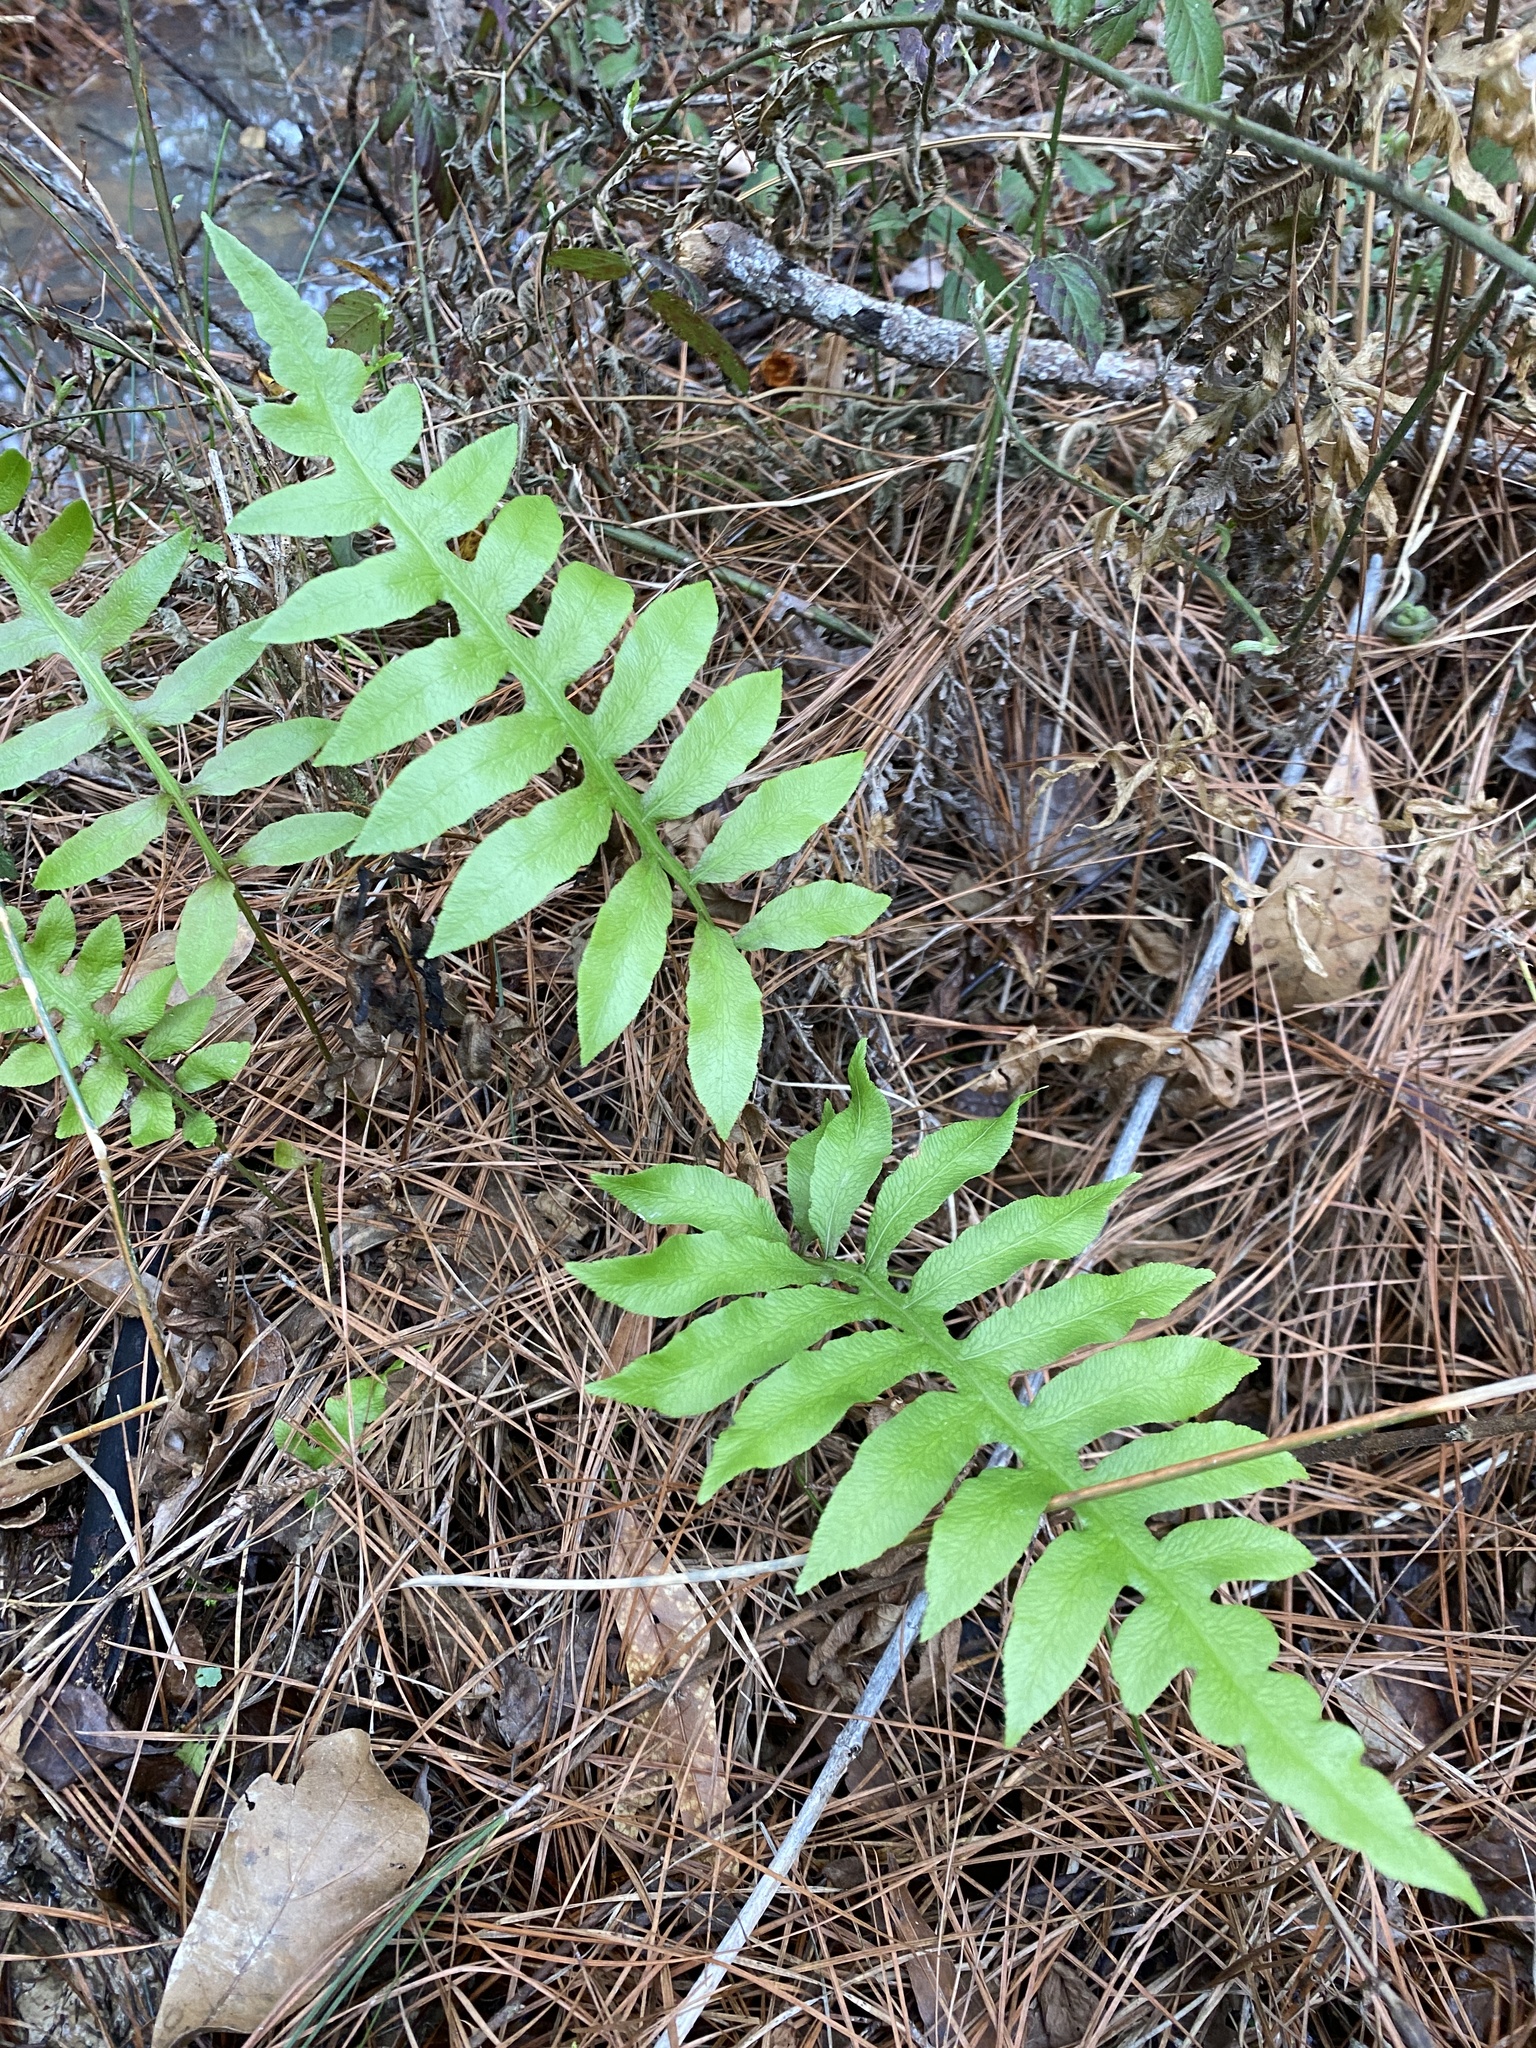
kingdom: Plantae
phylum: Tracheophyta
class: Polypodiopsida
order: Polypodiales
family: Blechnaceae
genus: Lorinseria
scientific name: Lorinseria areolata
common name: Dwarf chain fern
